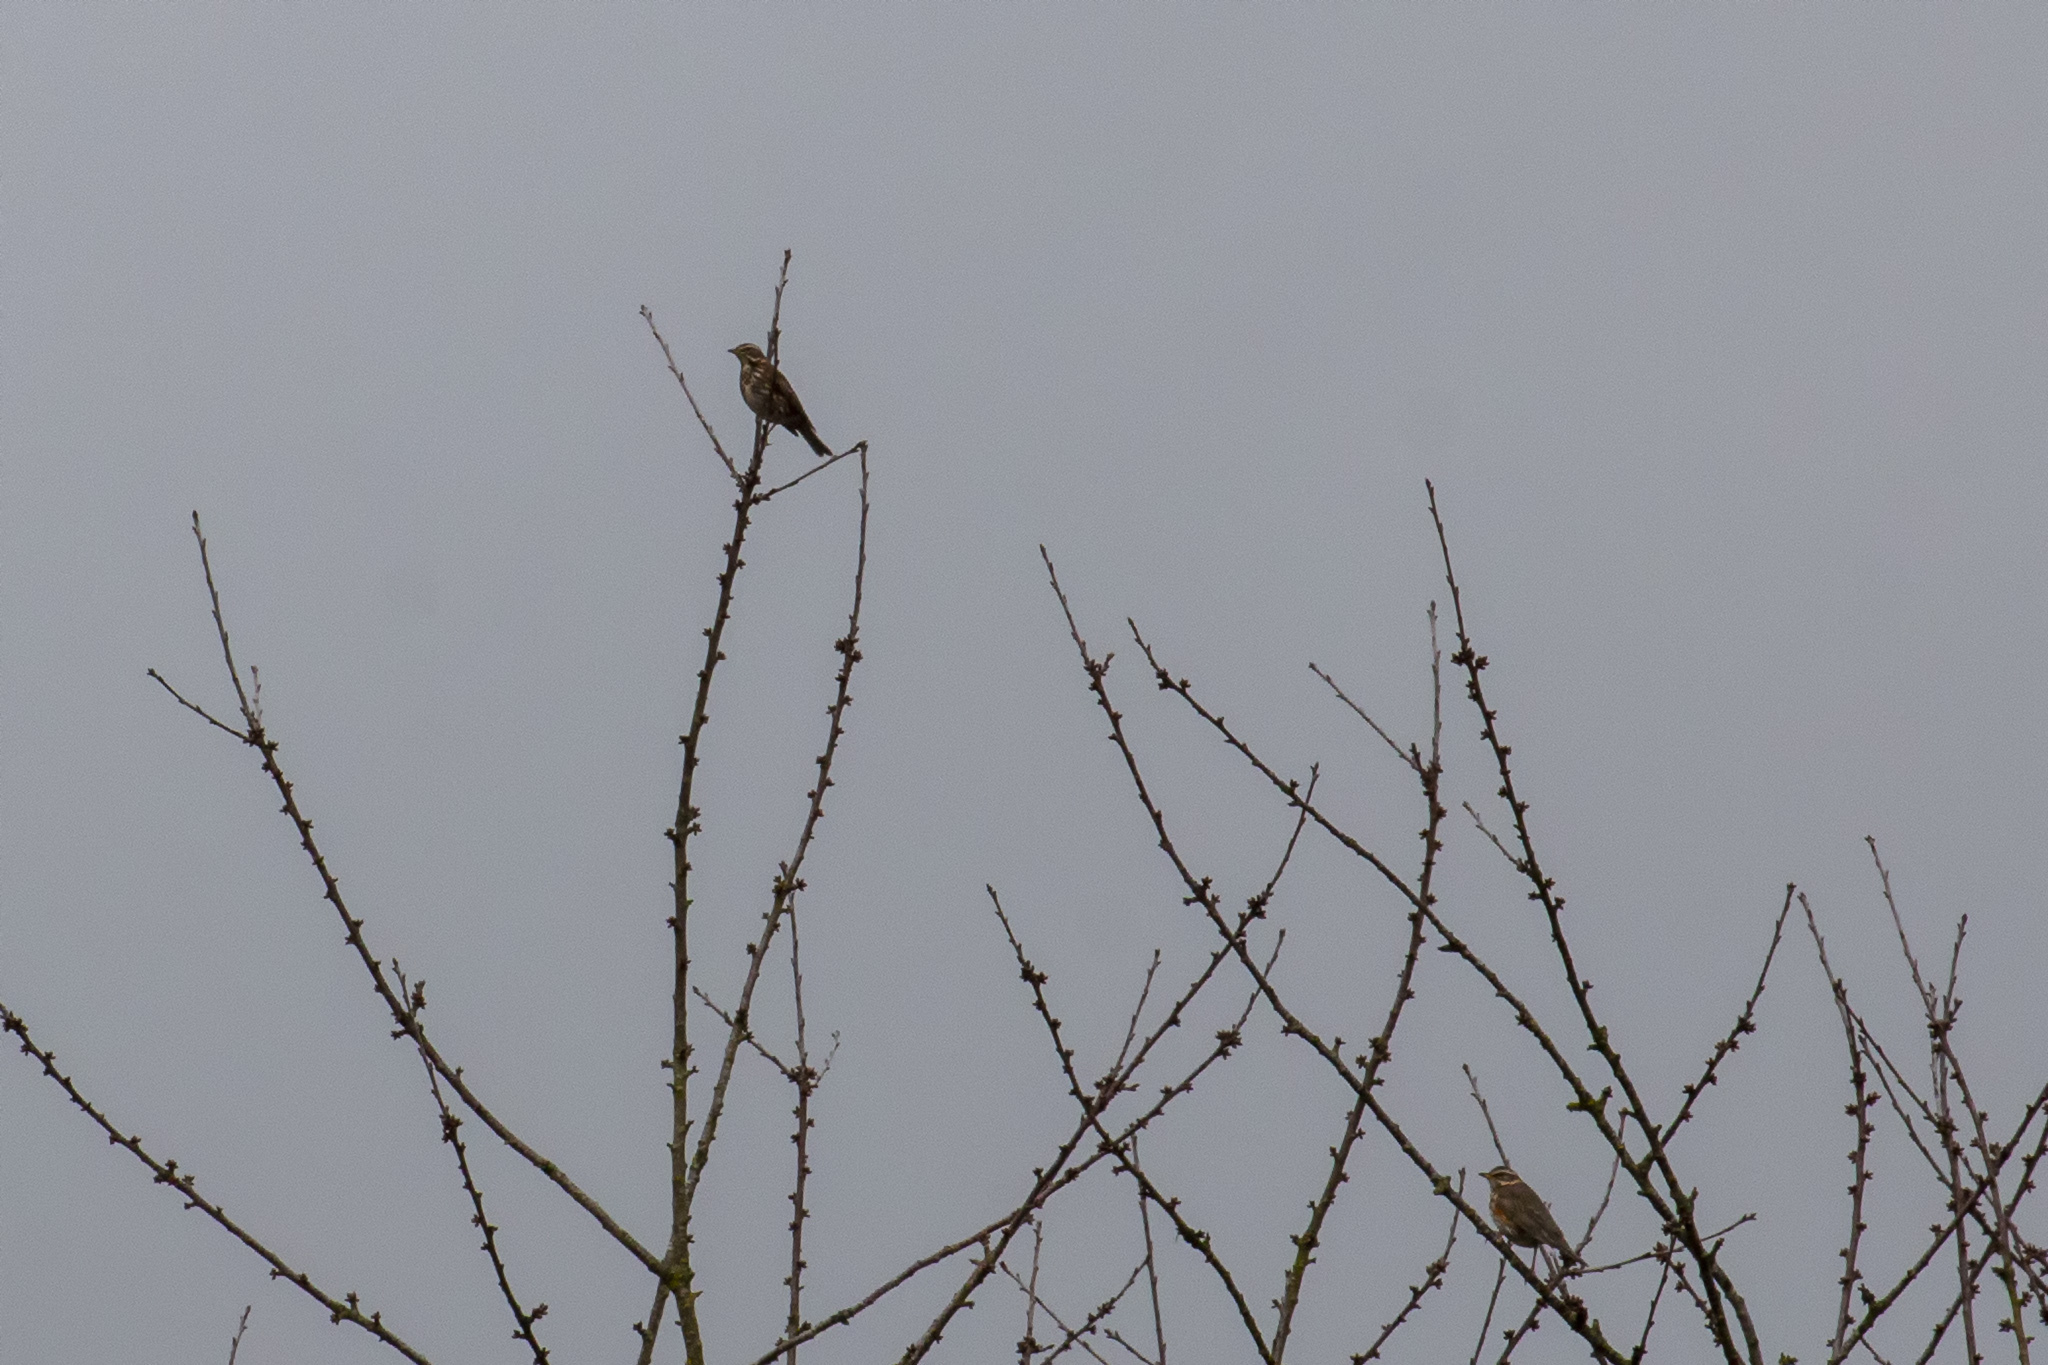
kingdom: Animalia
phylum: Chordata
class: Aves
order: Passeriformes
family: Turdidae
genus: Turdus
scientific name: Turdus iliacus
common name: Redwing
